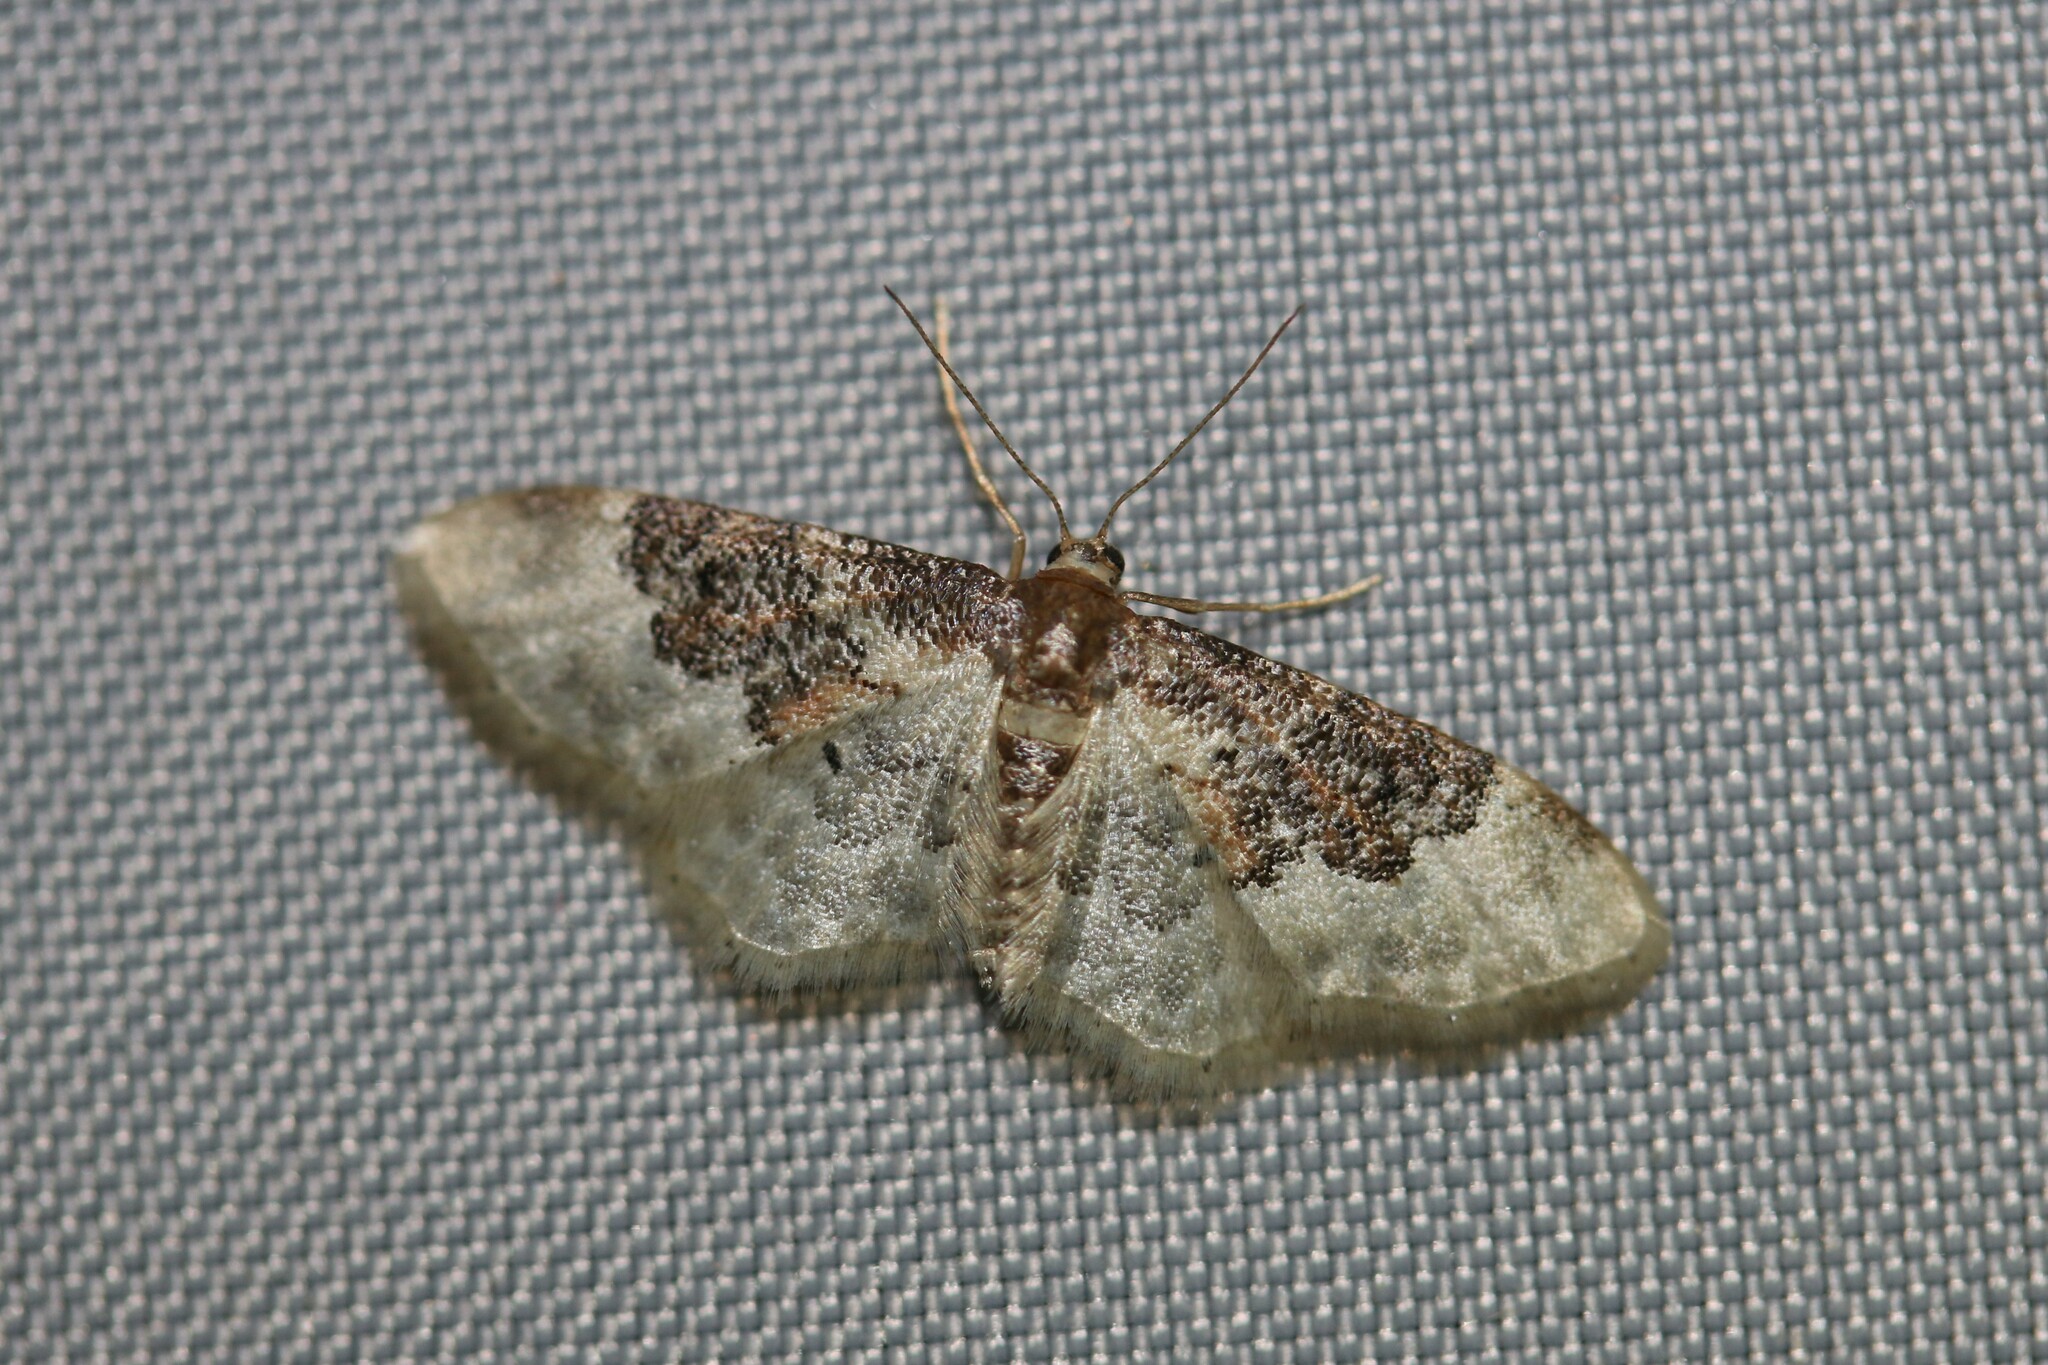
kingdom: Animalia
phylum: Arthropoda
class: Insecta
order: Lepidoptera
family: Geometridae
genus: Idaea
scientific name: Idaea rusticata
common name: Least carpet
